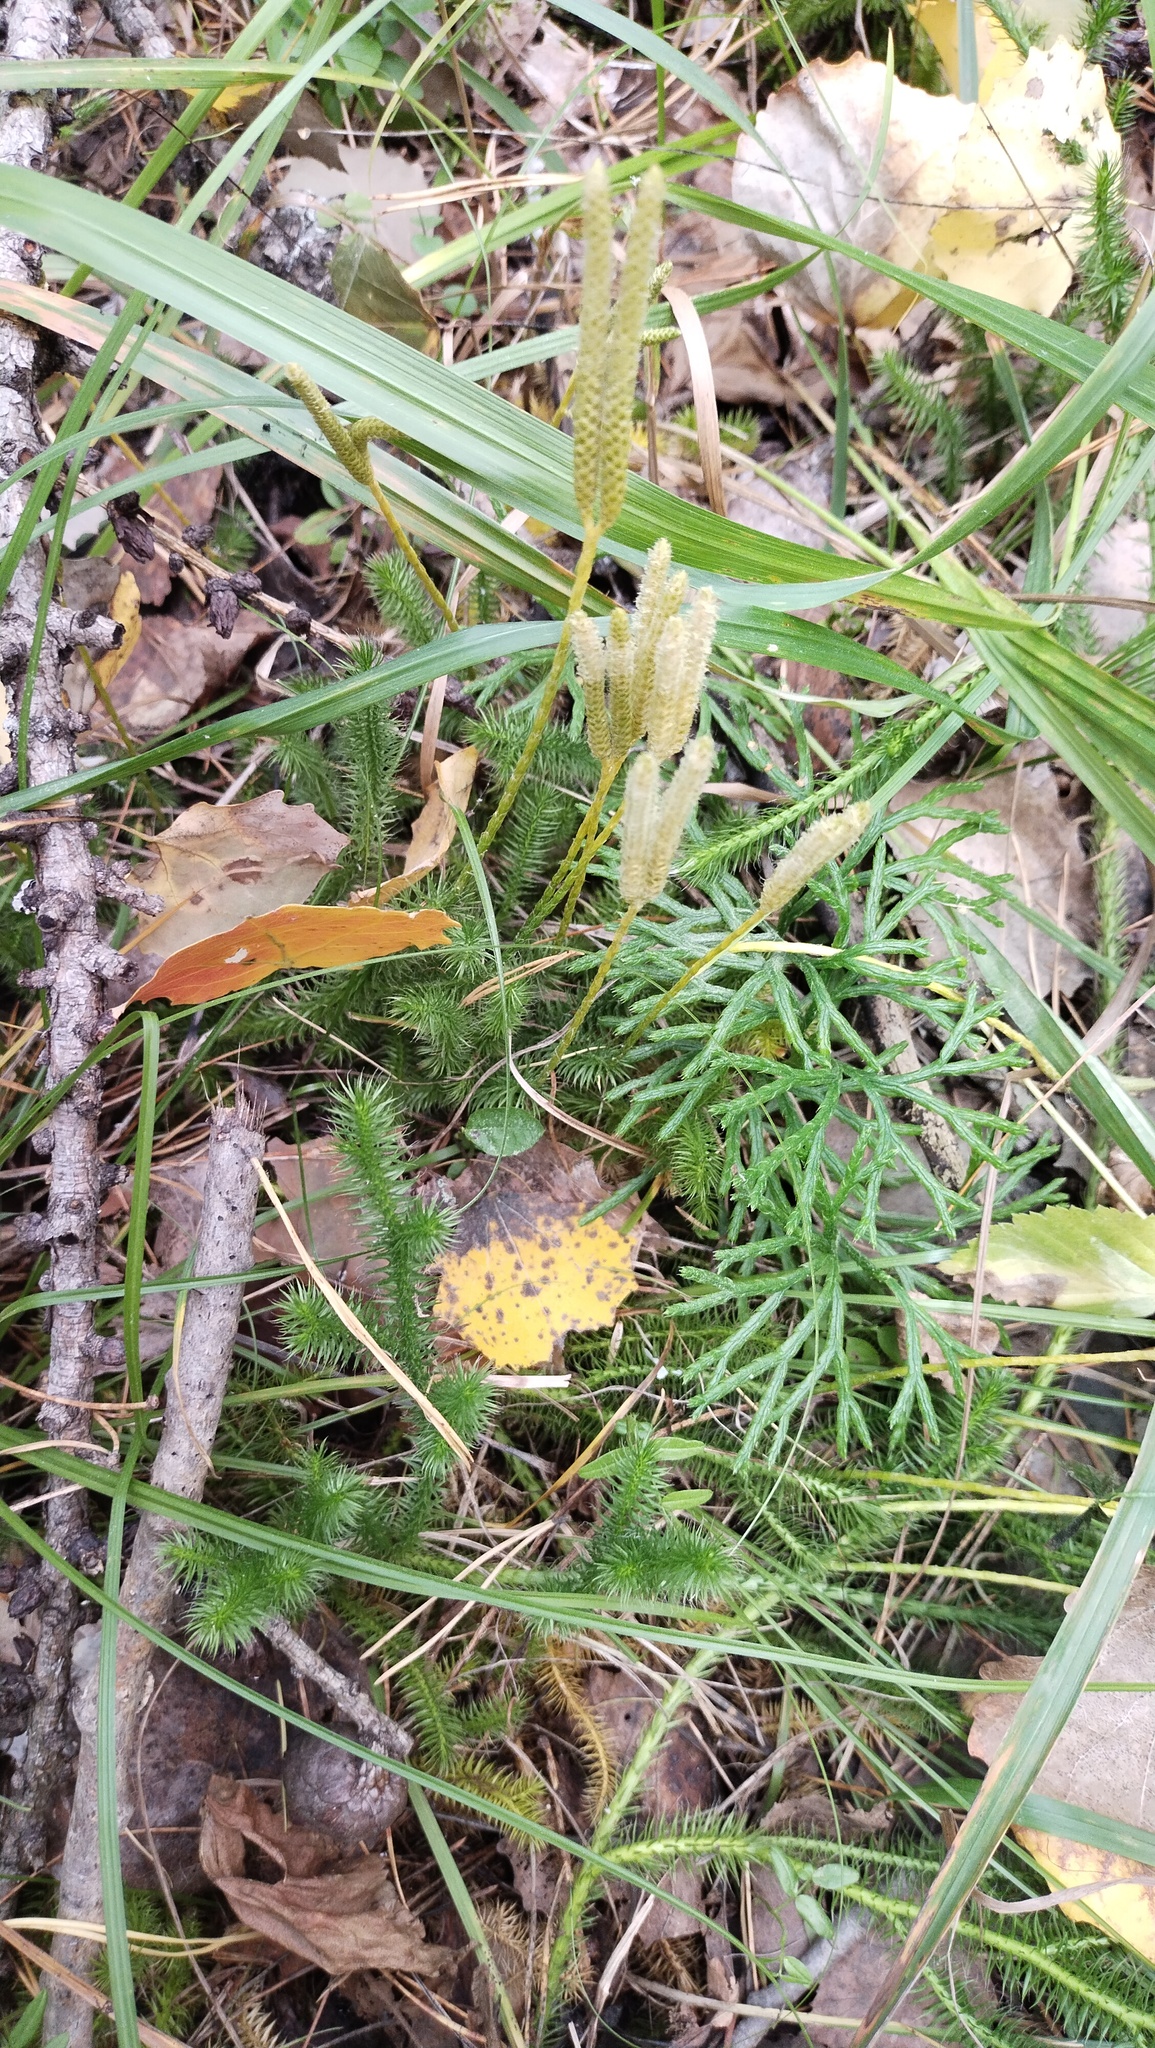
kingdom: Plantae
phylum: Tracheophyta
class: Lycopodiopsida
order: Lycopodiales
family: Lycopodiaceae
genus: Lycopodium
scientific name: Lycopodium clavatum
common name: Stag's-horn clubmoss
